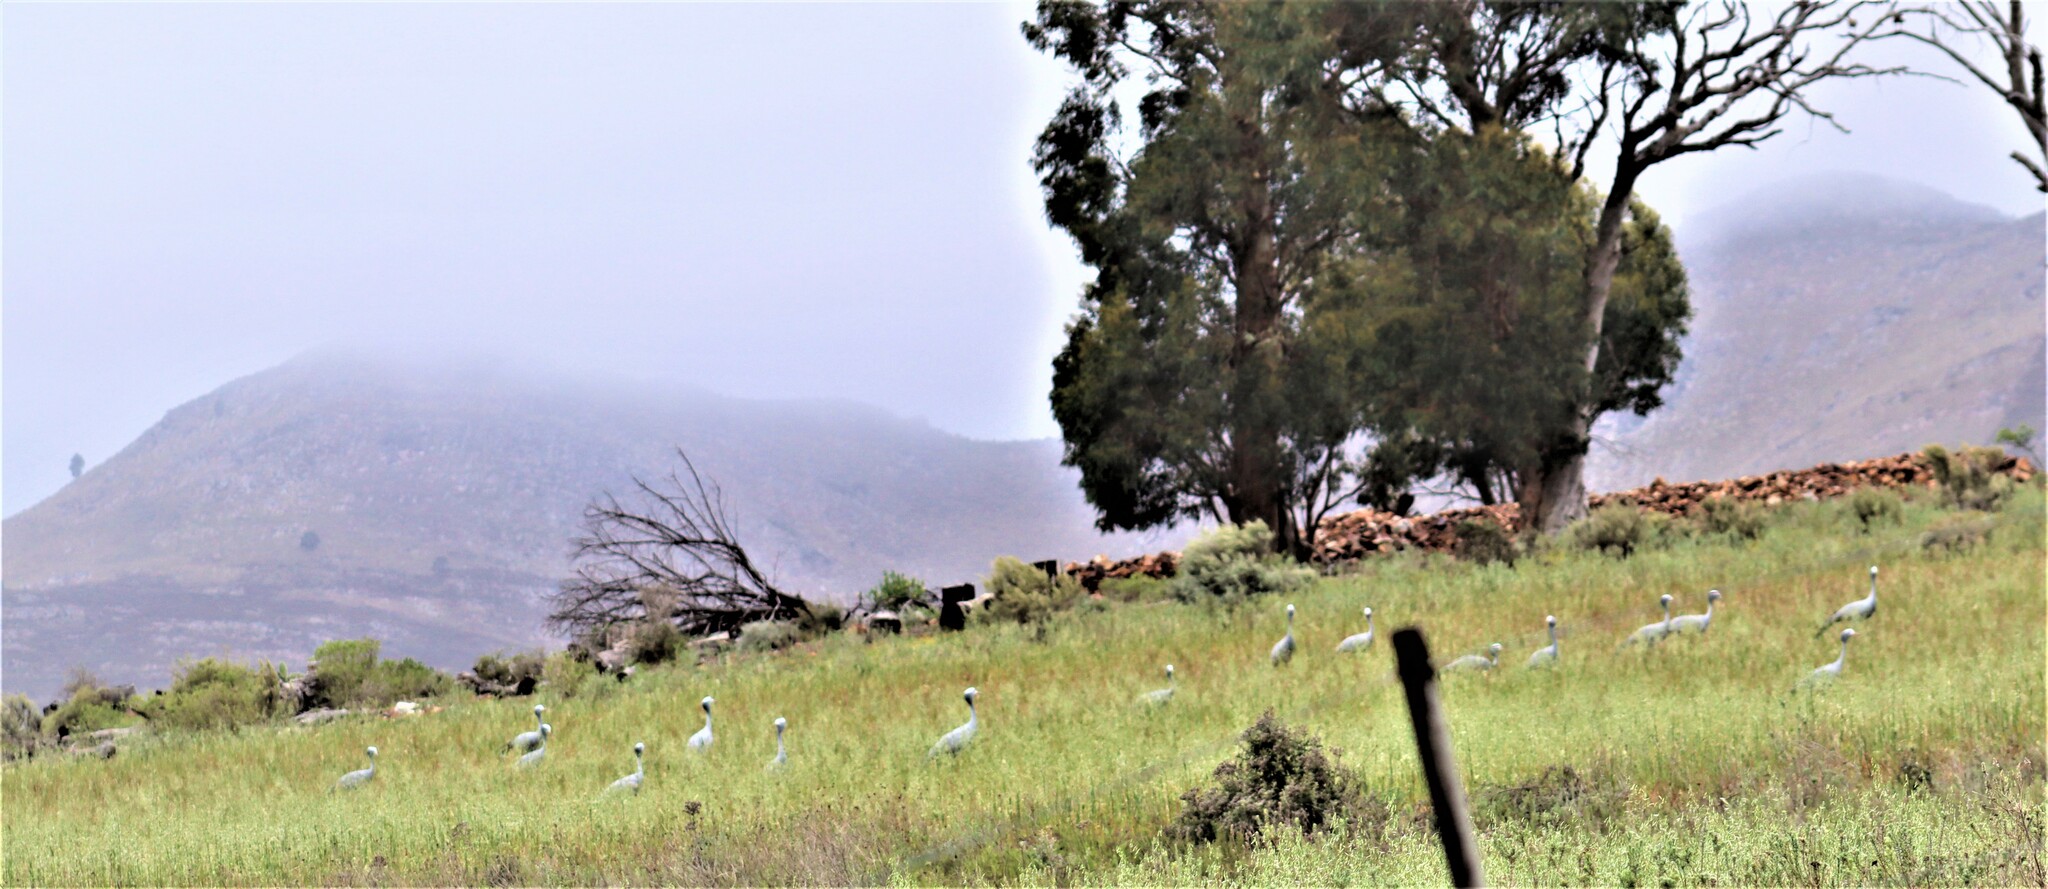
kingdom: Animalia
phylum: Chordata
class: Aves
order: Gruiformes
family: Gruidae
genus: Anthropoides
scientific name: Anthropoides paradiseus
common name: Blue crane
